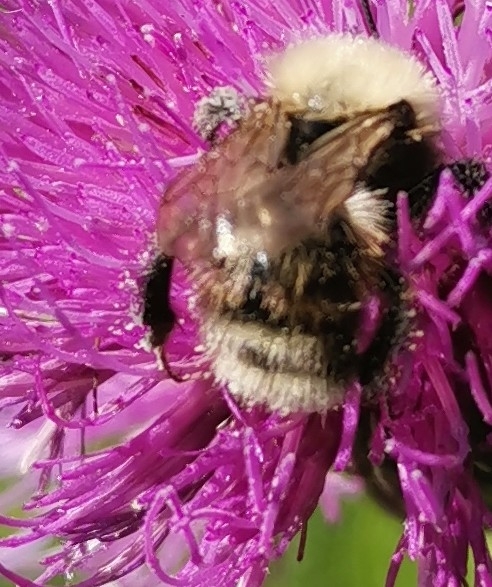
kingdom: Animalia
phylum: Arthropoda
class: Insecta
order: Hymenoptera
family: Apidae
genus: Bombus
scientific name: Bombus pascuorum
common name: Common carder bee
